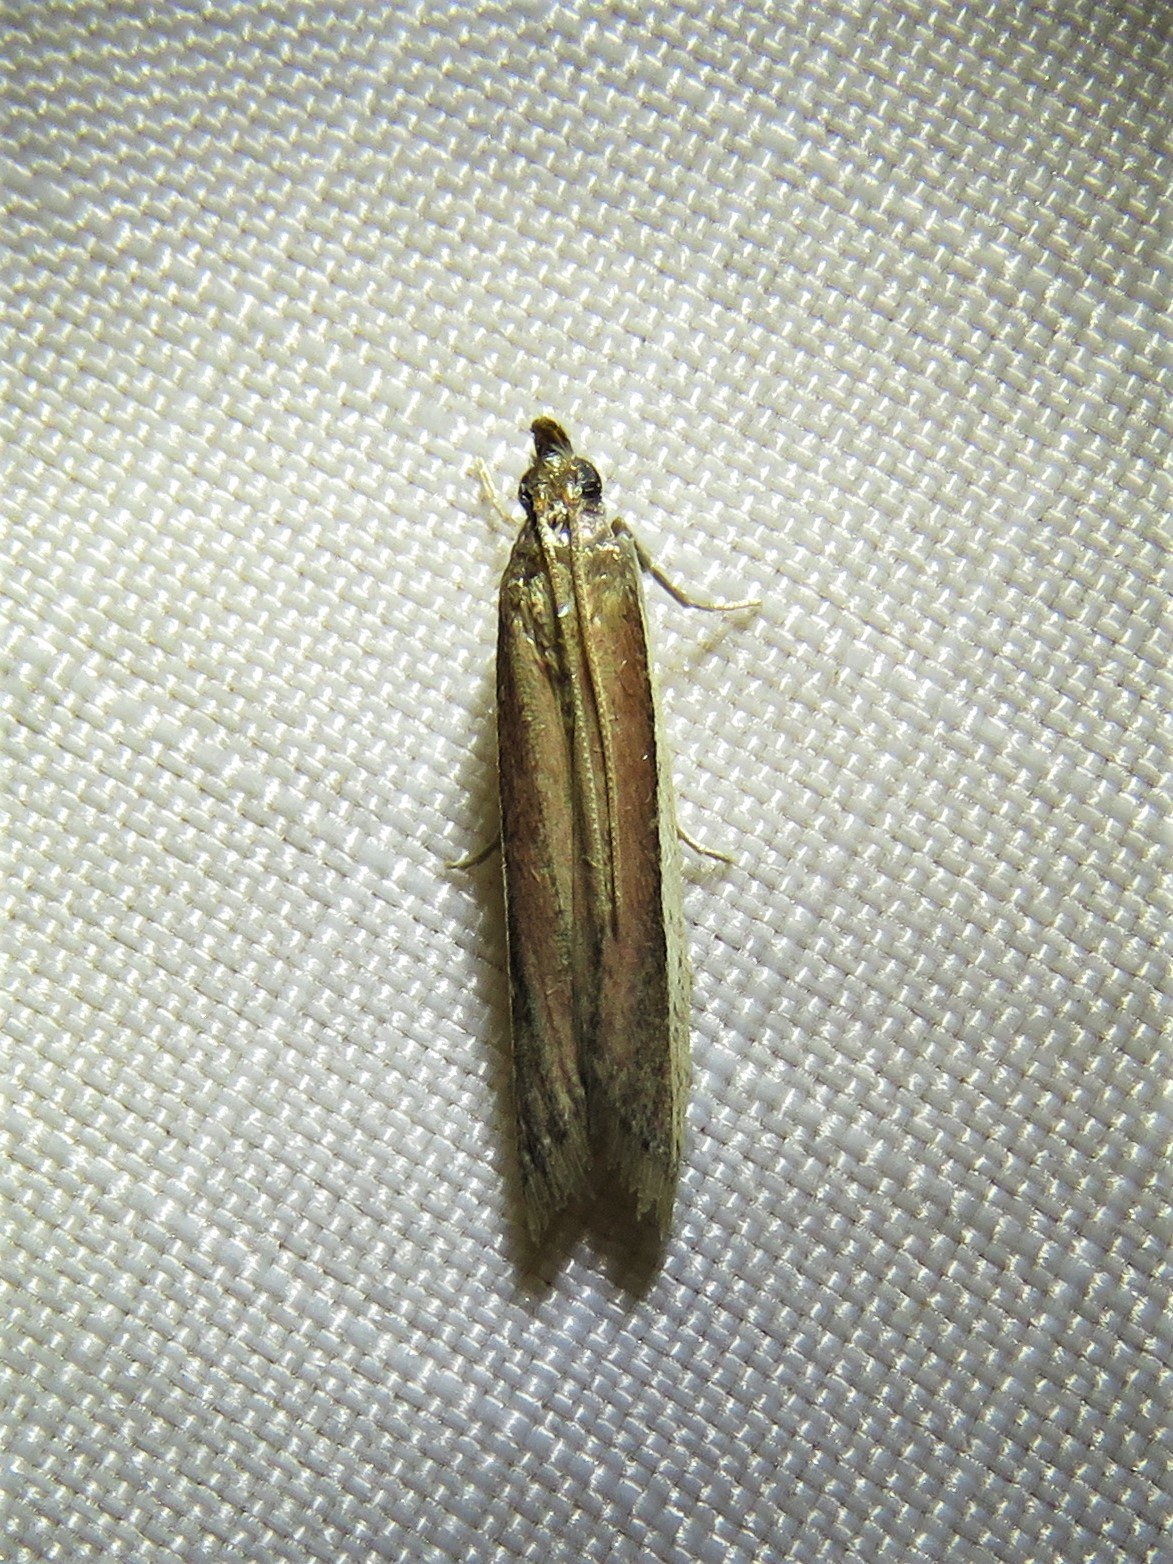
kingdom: Animalia
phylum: Arthropoda
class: Insecta
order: Lepidoptera
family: Pyralidae
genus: Tampa
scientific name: Tampa dimediatella
